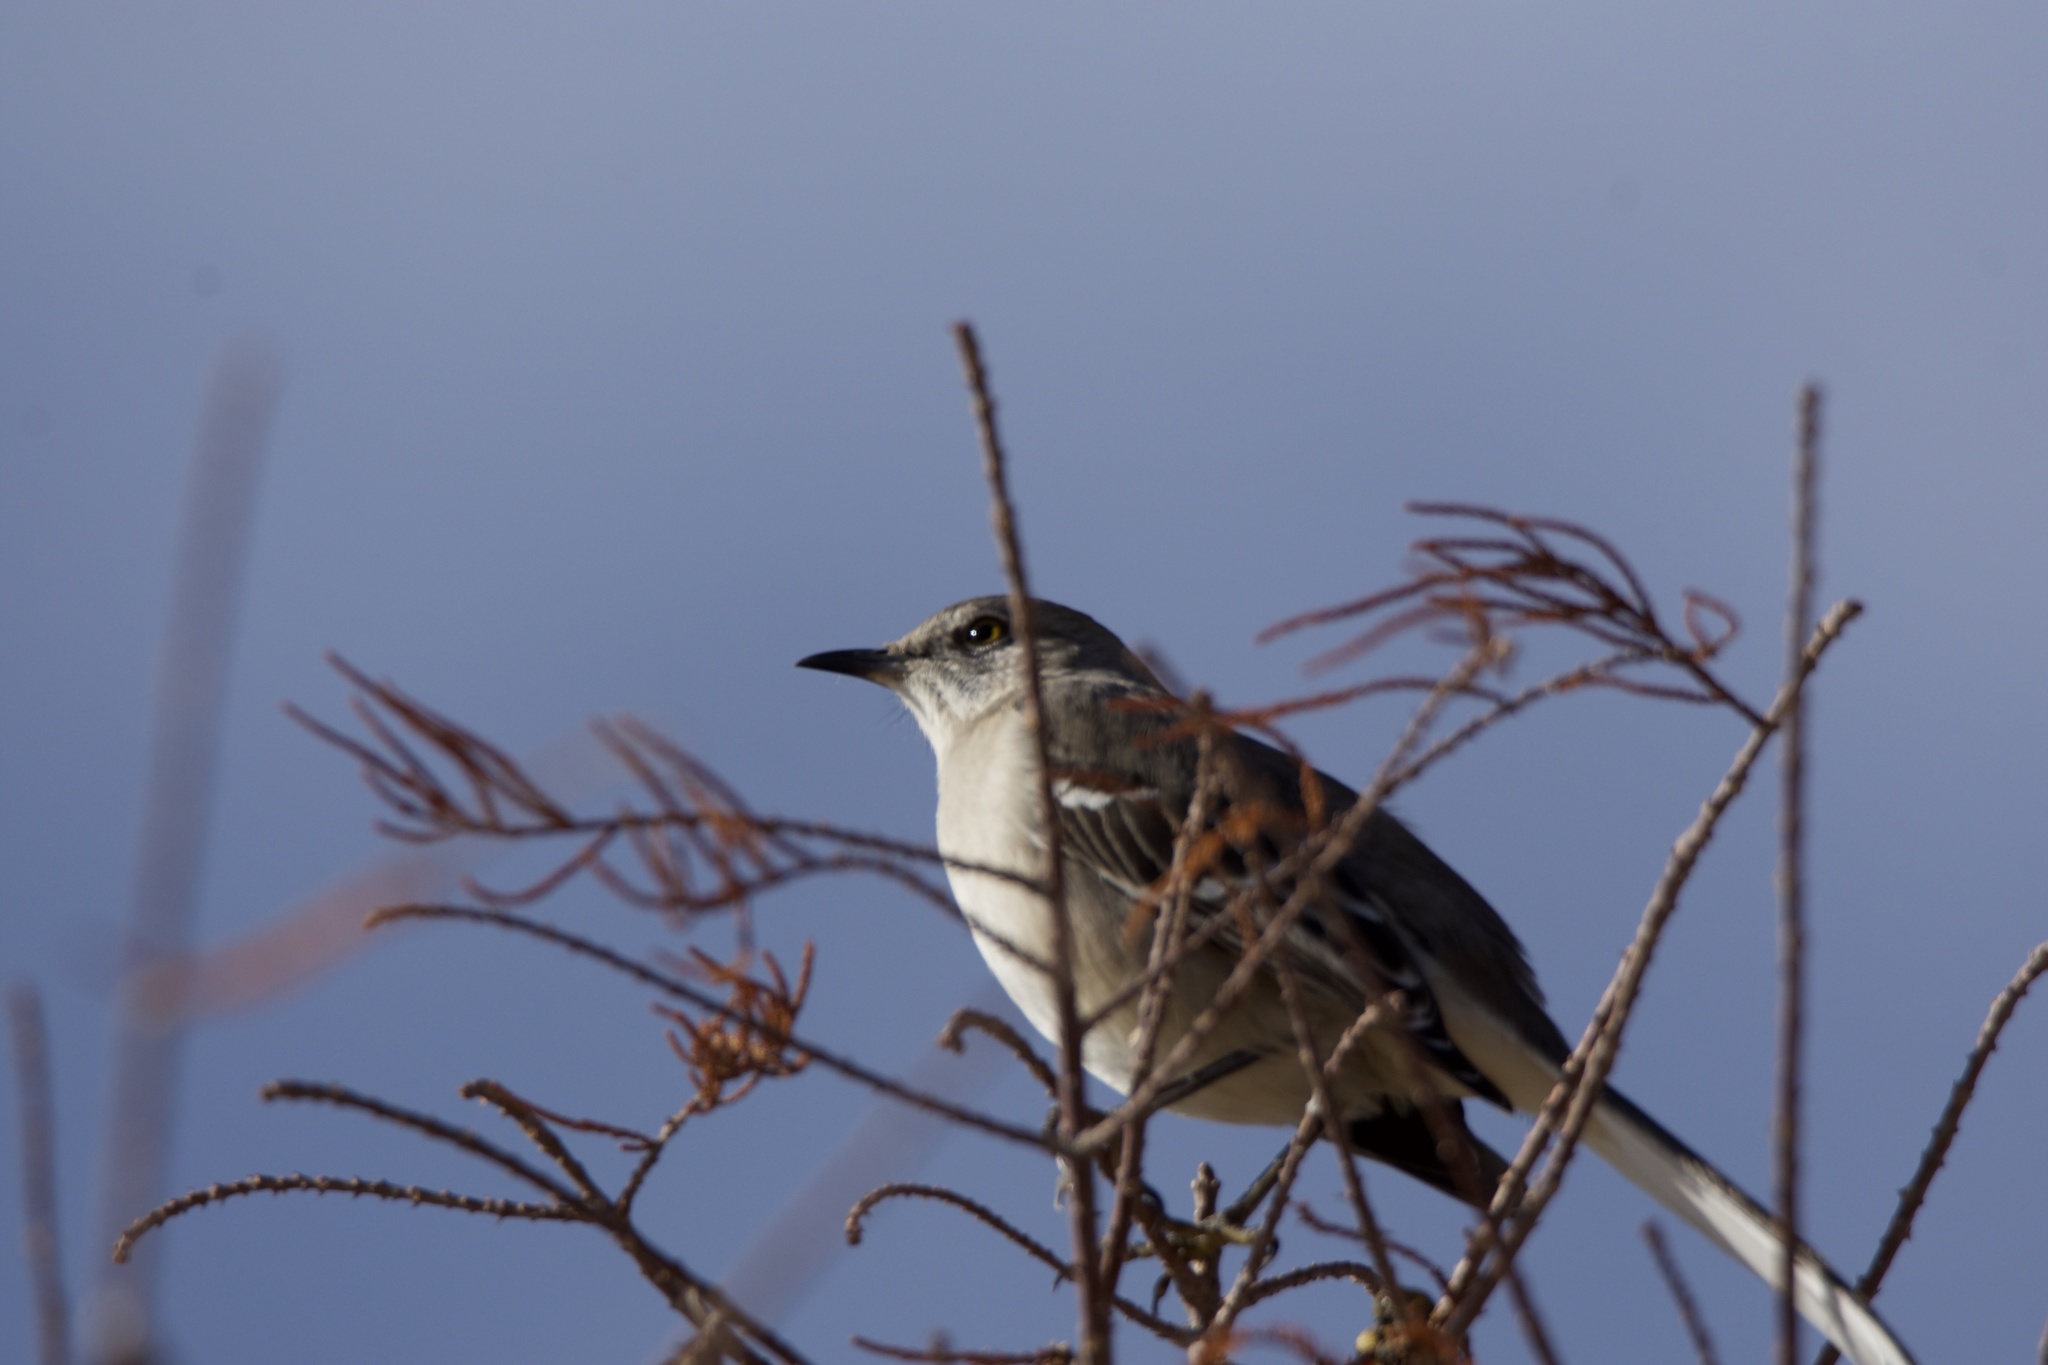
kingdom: Animalia
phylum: Chordata
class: Aves
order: Passeriformes
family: Mimidae
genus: Mimus
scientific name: Mimus polyglottos
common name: Northern mockingbird
